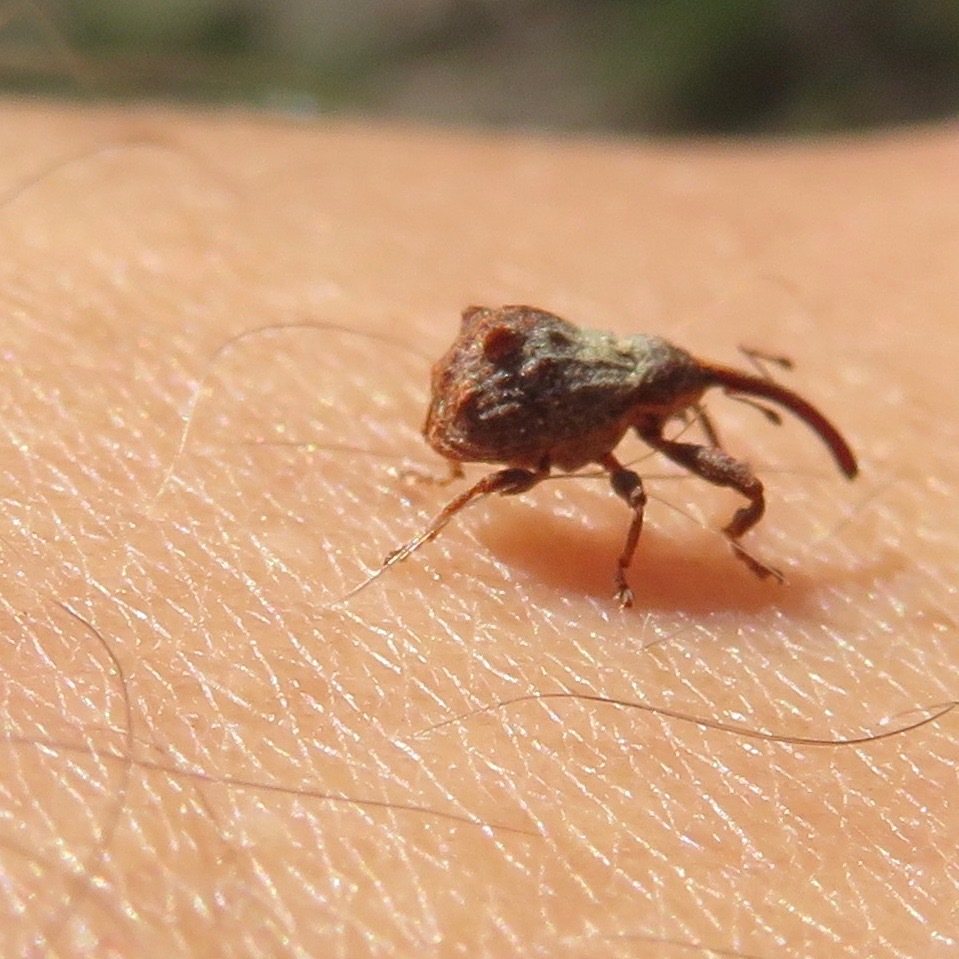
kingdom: Animalia
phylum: Arthropoda
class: Insecta
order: Coleoptera
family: Curculionidae
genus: Anthonomus
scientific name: Anthonomus quadrigibbus
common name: Apple curculio
